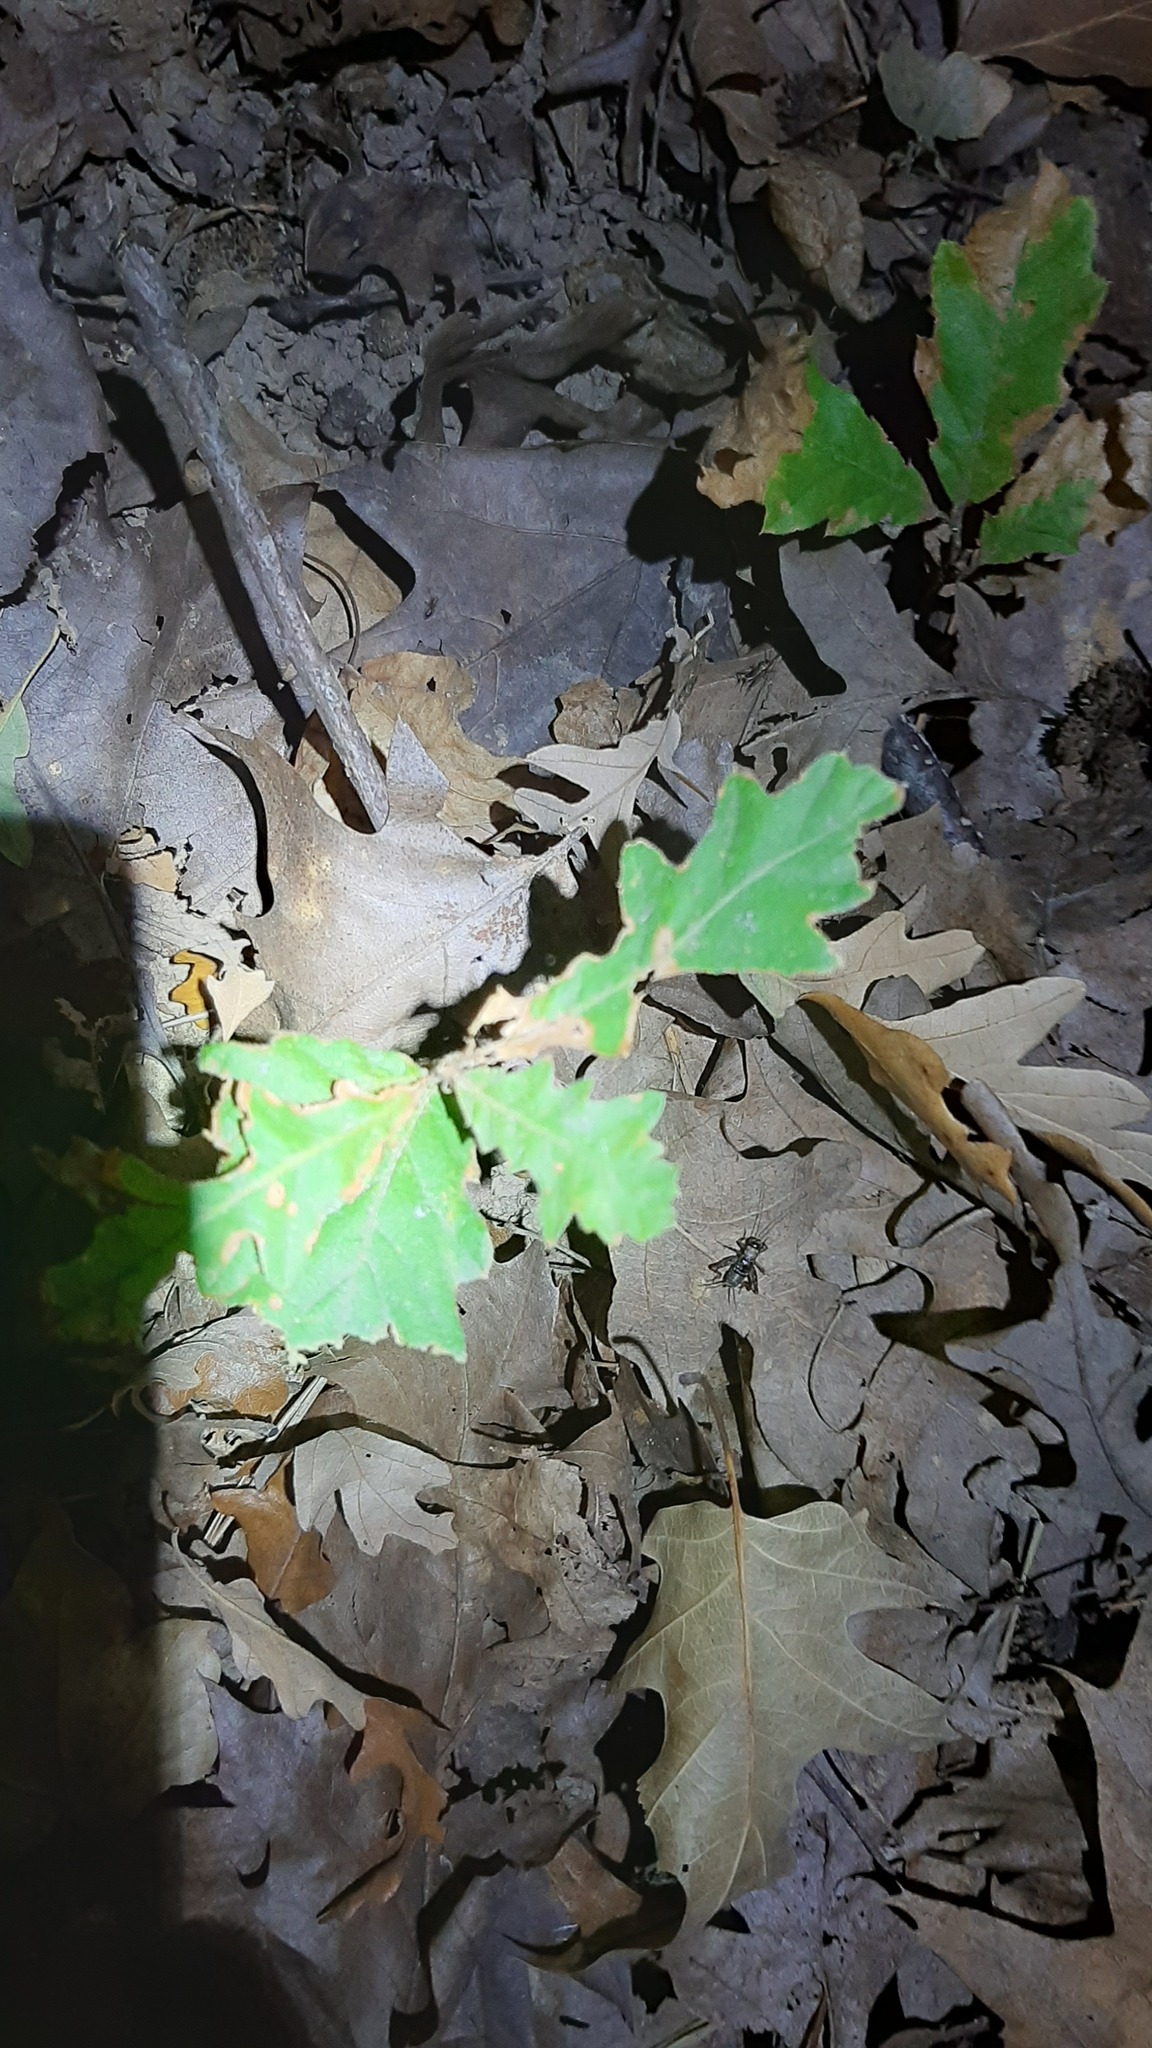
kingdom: Animalia
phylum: Arthropoda
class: Insecta
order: Orthoptera
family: Trigonidiidae
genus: Nemobius
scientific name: Nemobius sylvestris
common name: Wood-cricket
